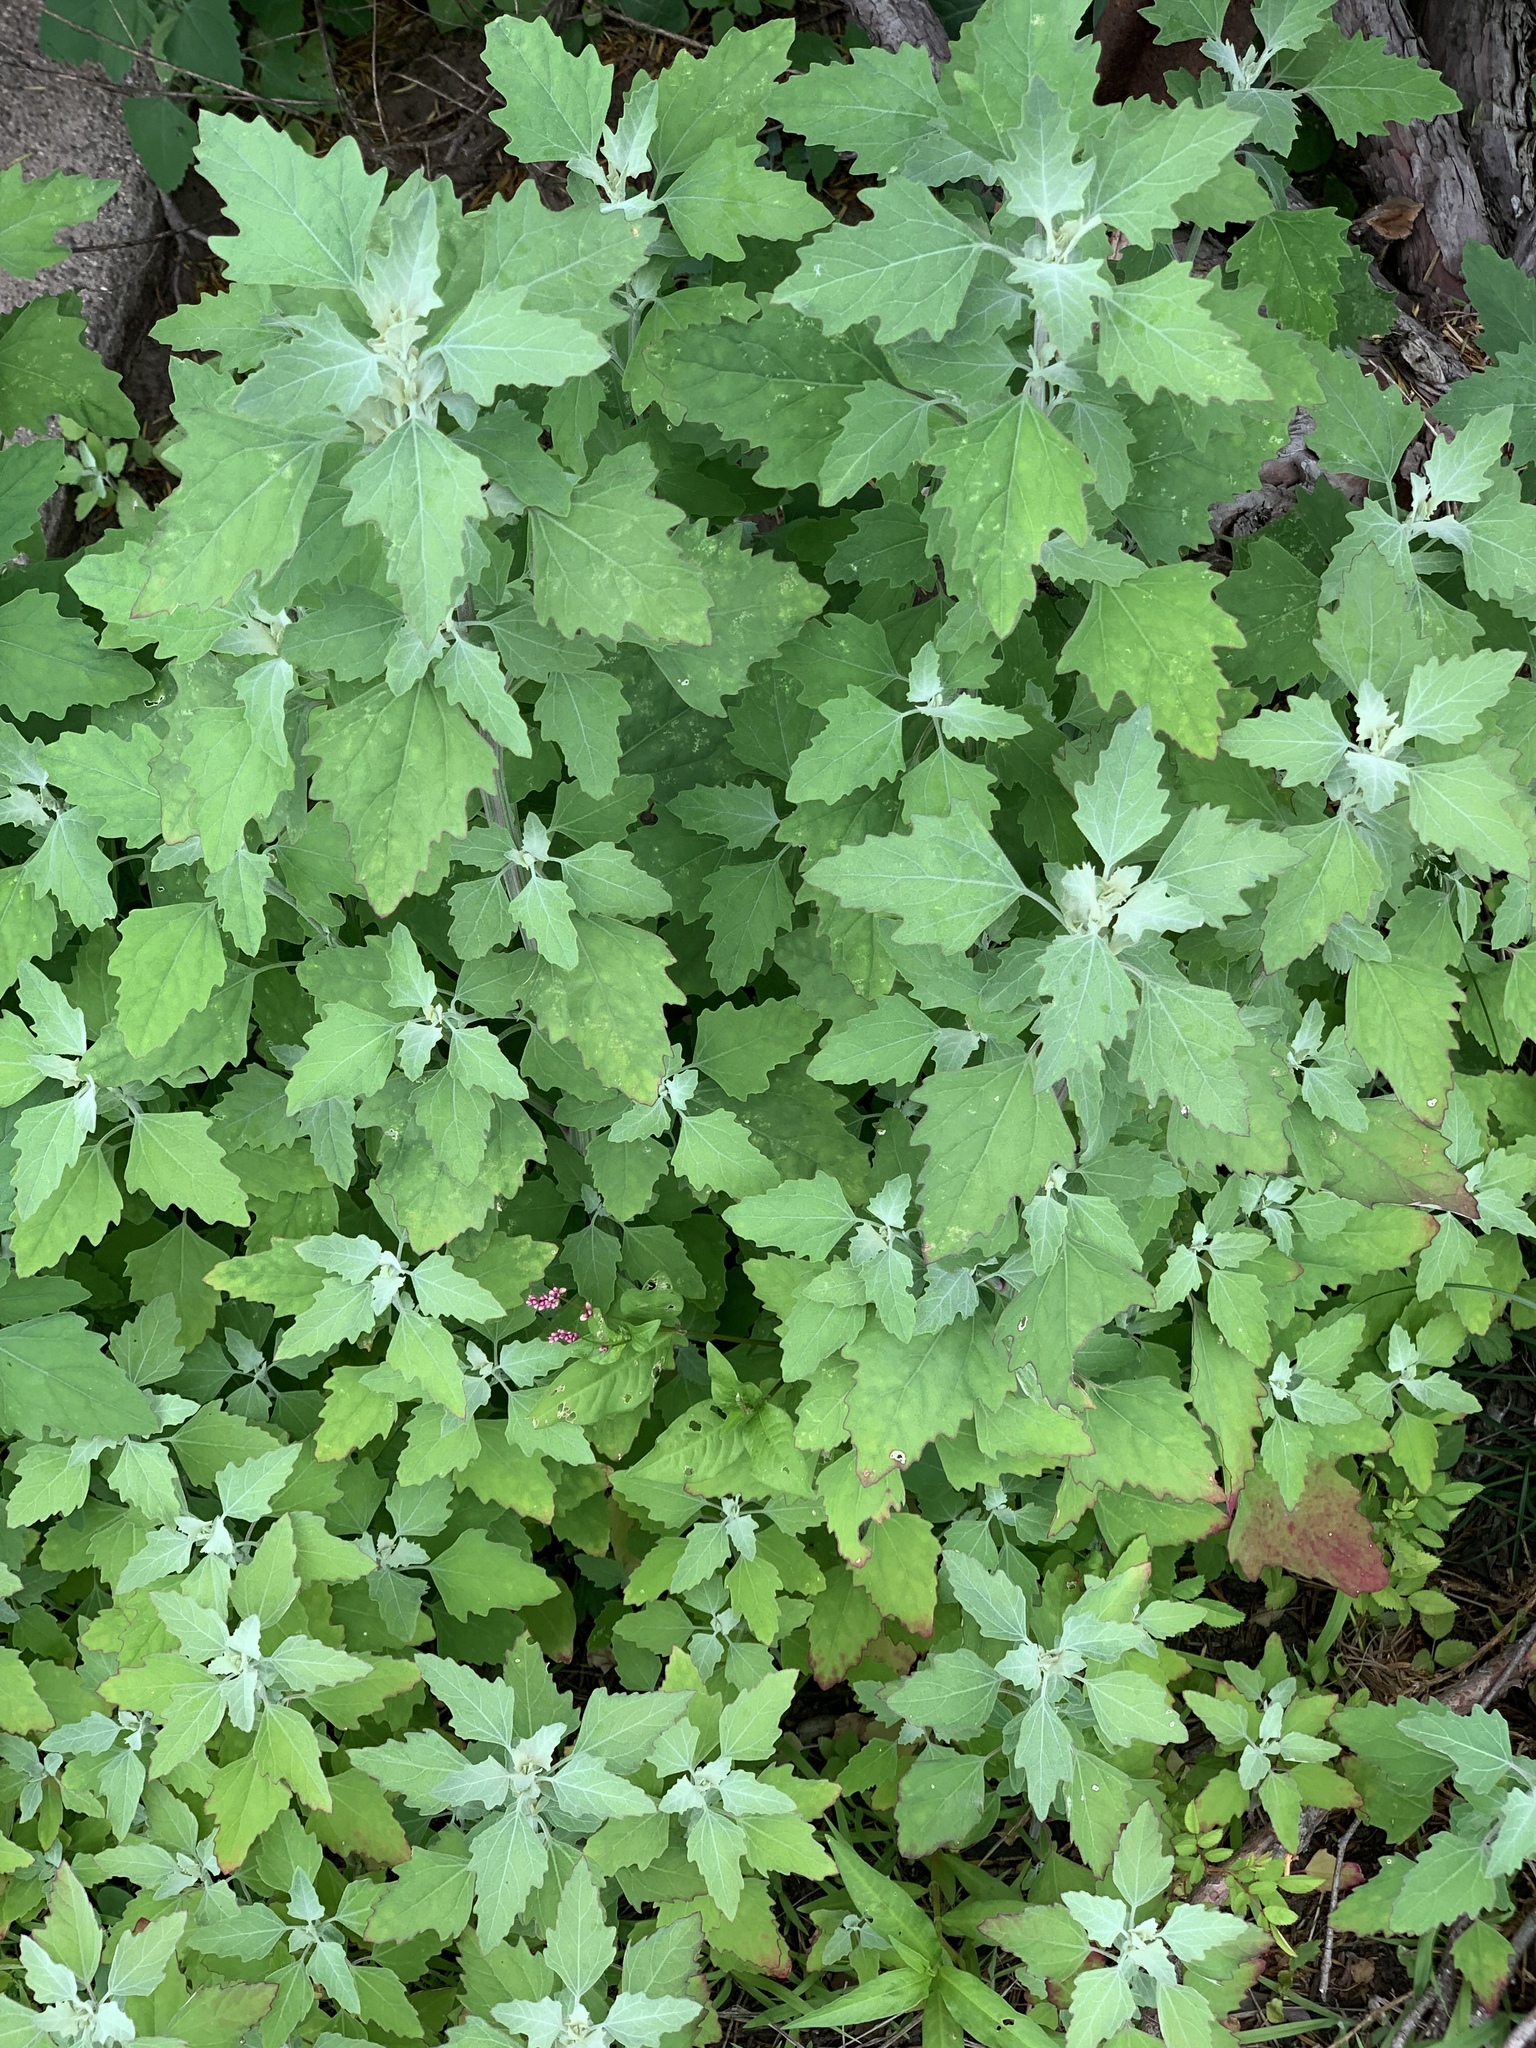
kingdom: Plantae
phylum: Tracheophyta
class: Magnoliopsida
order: Caryophyllales
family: Amaranthaceae
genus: Chenopodium
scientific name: Chenopodium album
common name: Fat-hen
